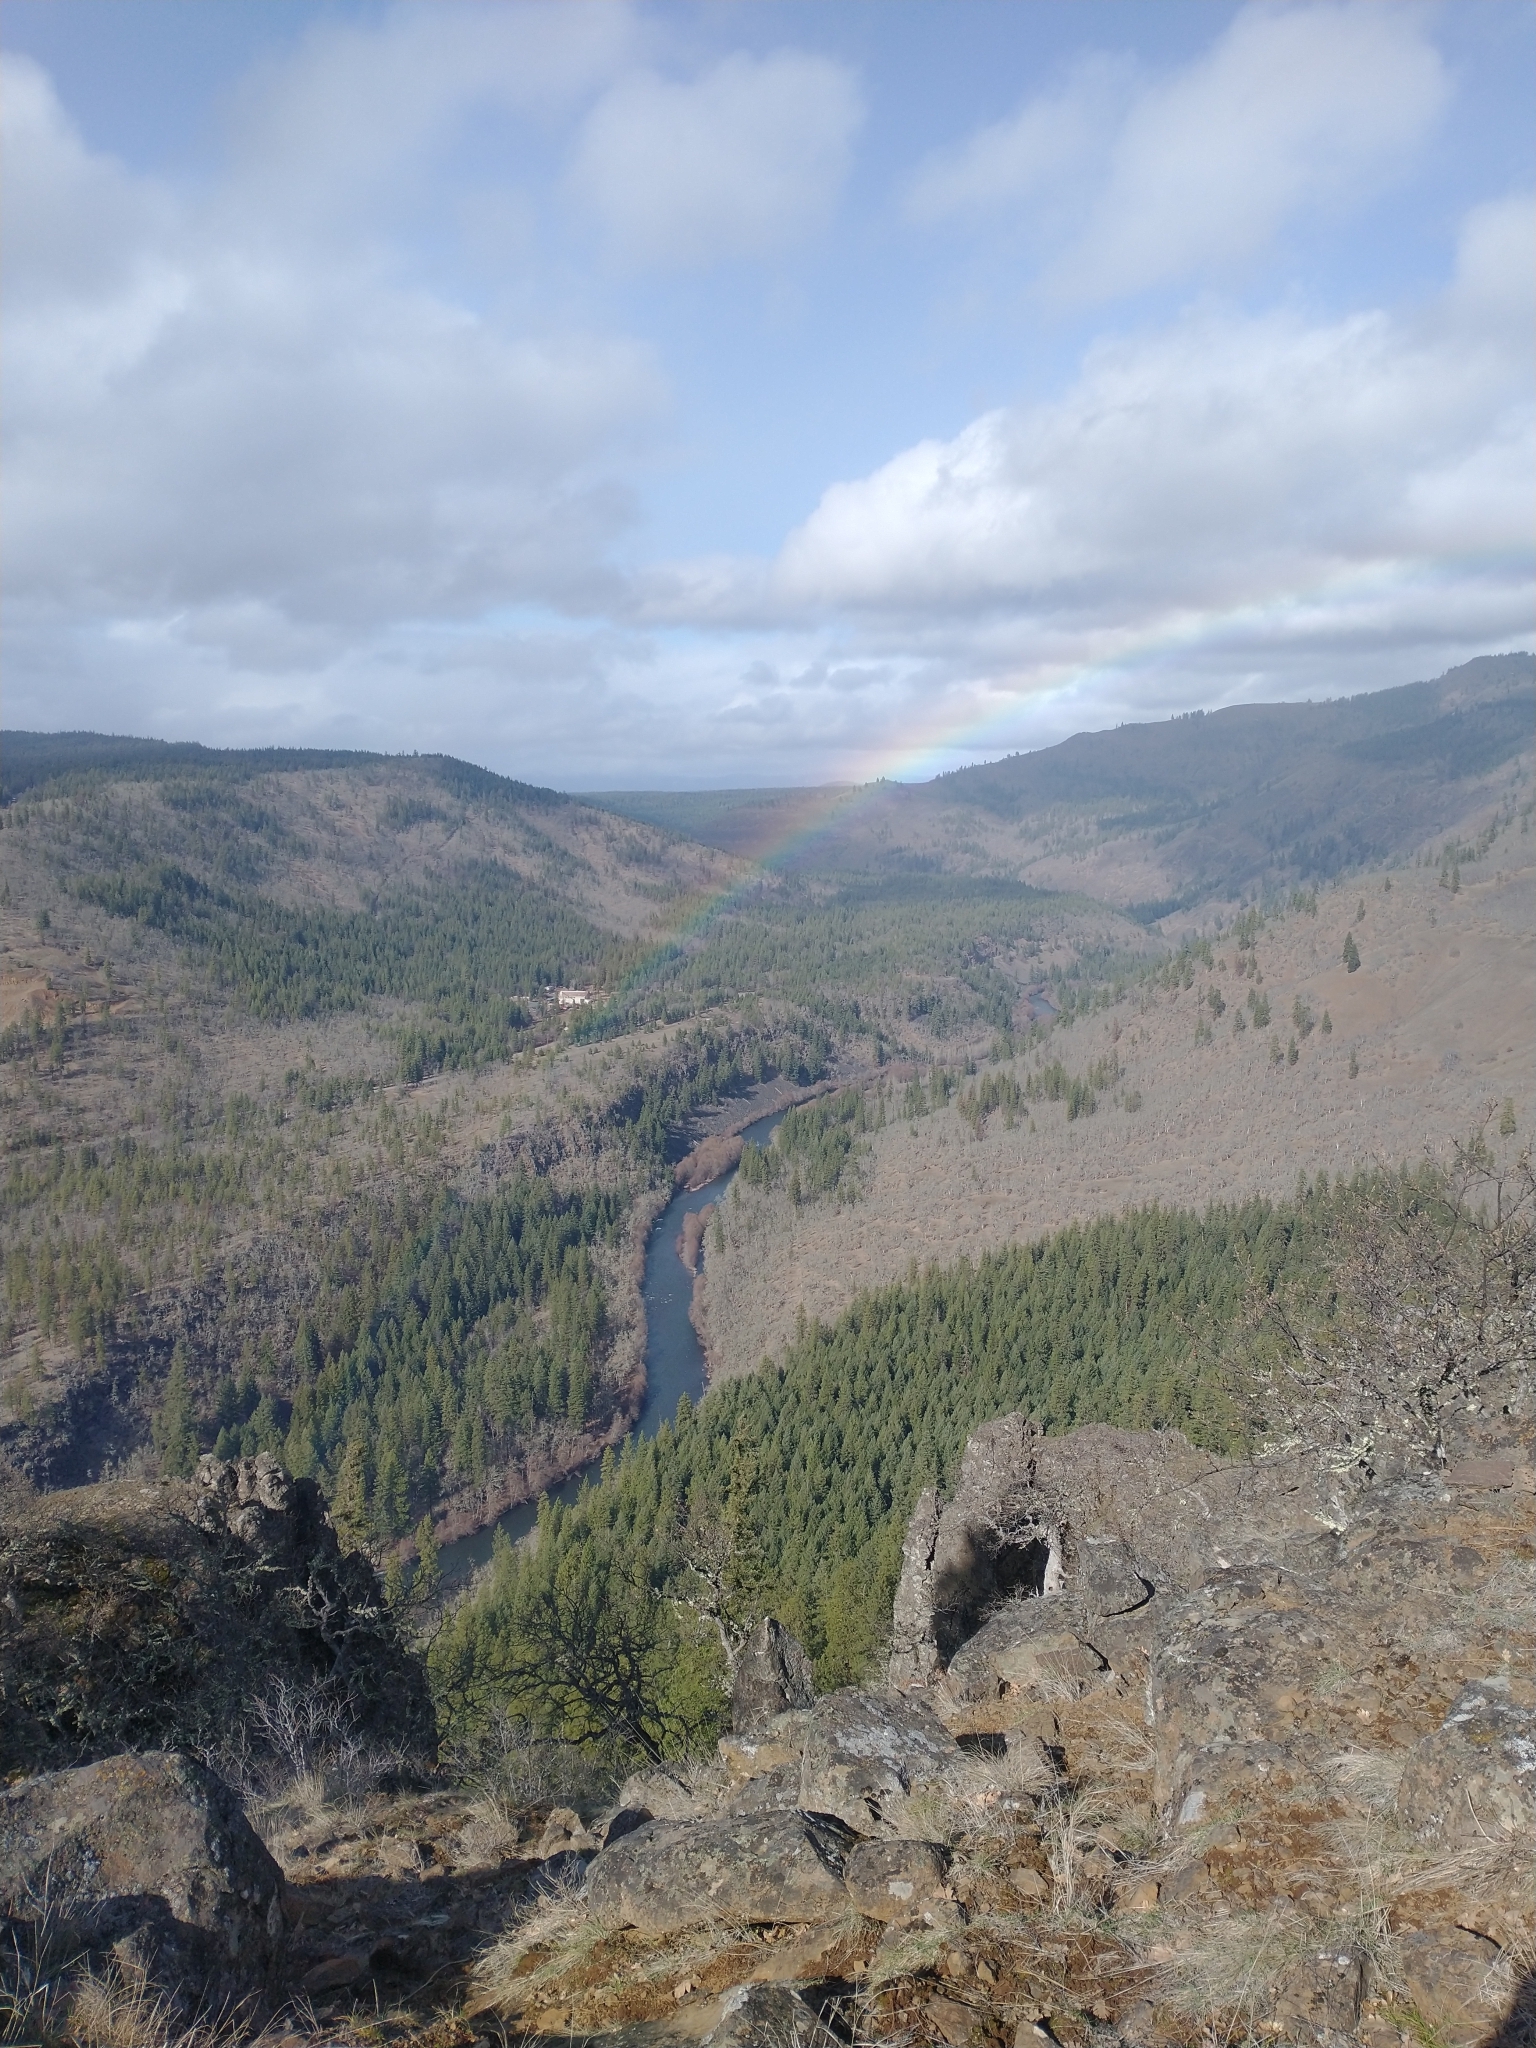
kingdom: Plantae
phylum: Tracheophyta
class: Magnoliopsida
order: Fagales
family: Fagaceae
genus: Quercus
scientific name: Quercus garryana
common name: Garry oak
